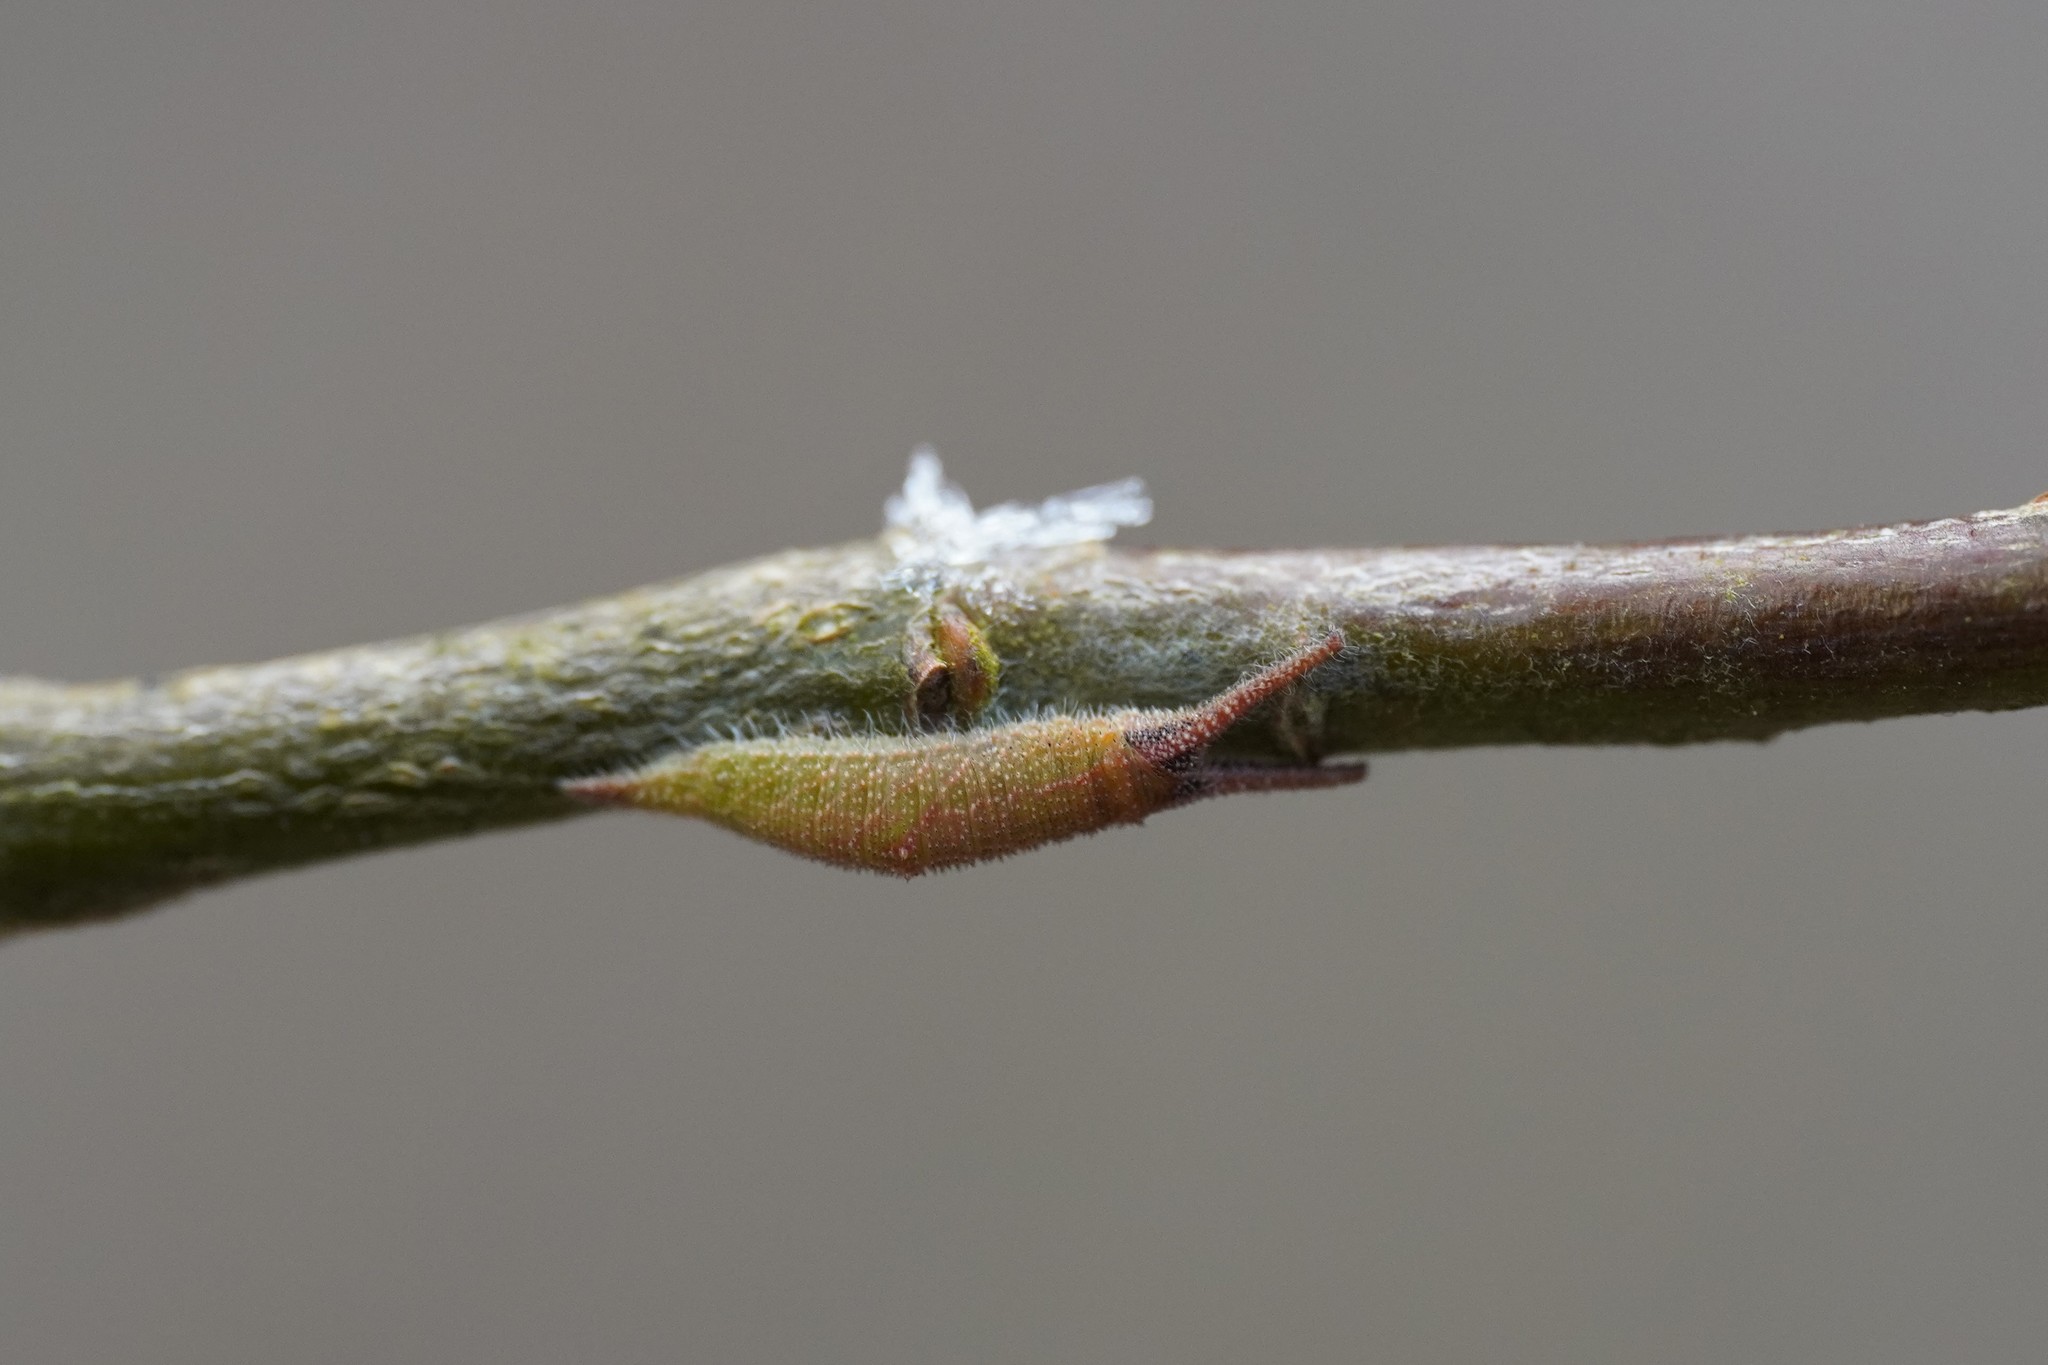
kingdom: Animalia
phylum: Arthropoda
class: Insecta
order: Lepidoptera
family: Nymphalidae
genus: Apatura
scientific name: Apatura iris
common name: Purple emperor
